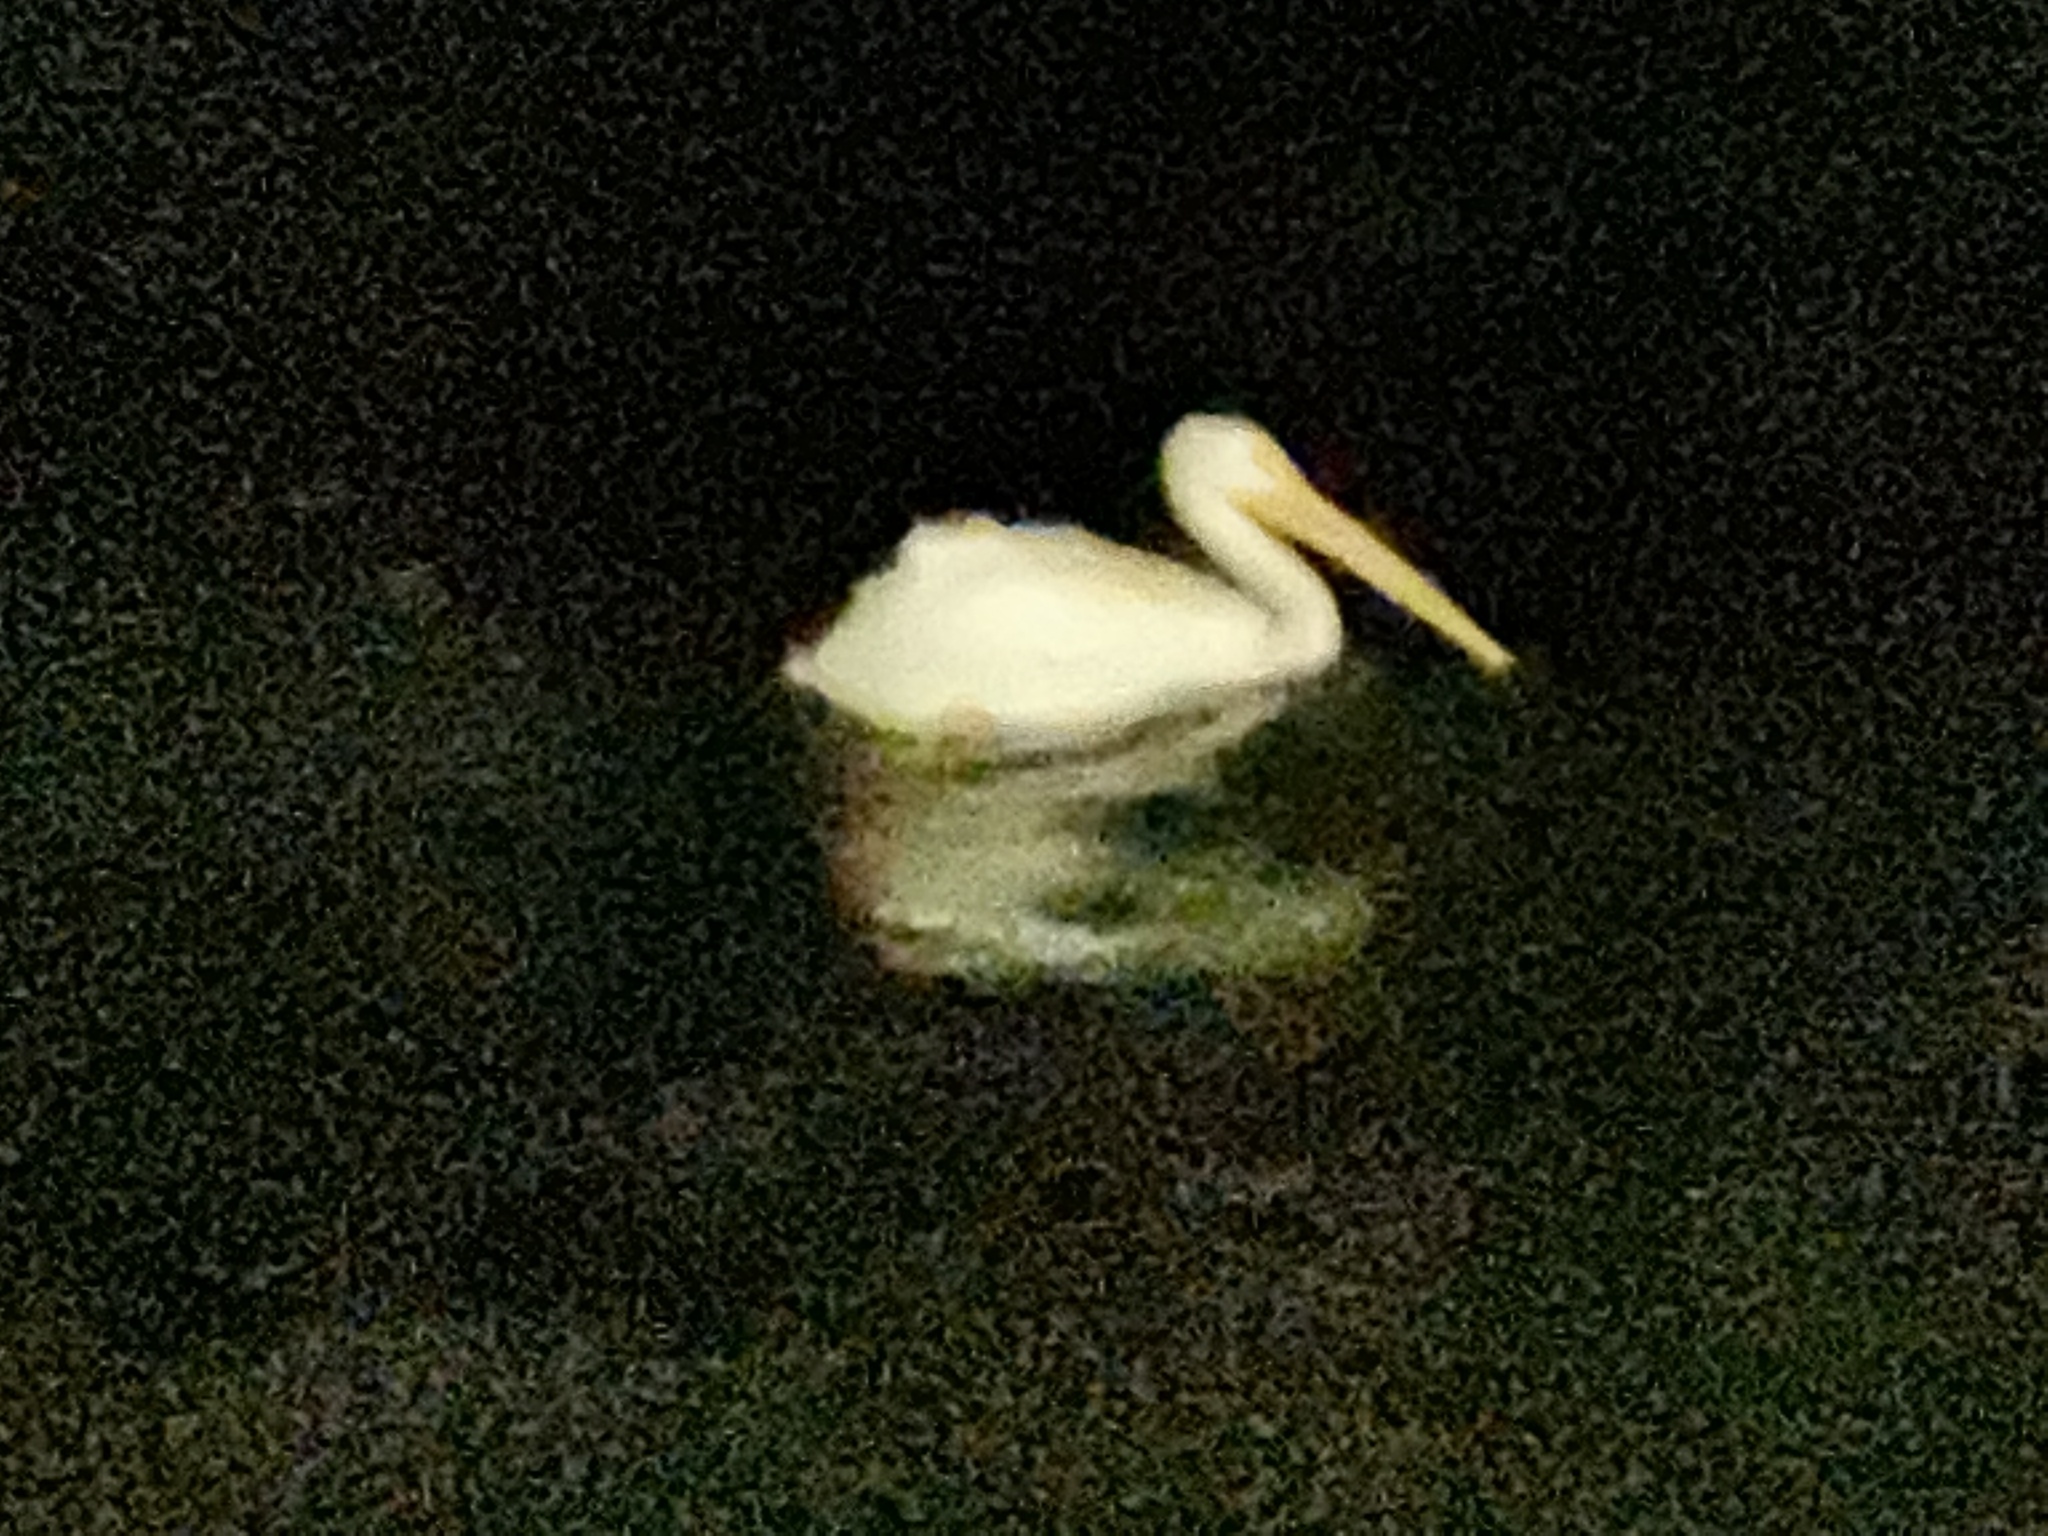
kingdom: Animalia
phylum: Chordata
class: Aves
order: Pelecaniformes
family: Pelecanidae
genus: Pelecanus
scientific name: Pelecanus erythrorhynchos
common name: American white pelican
